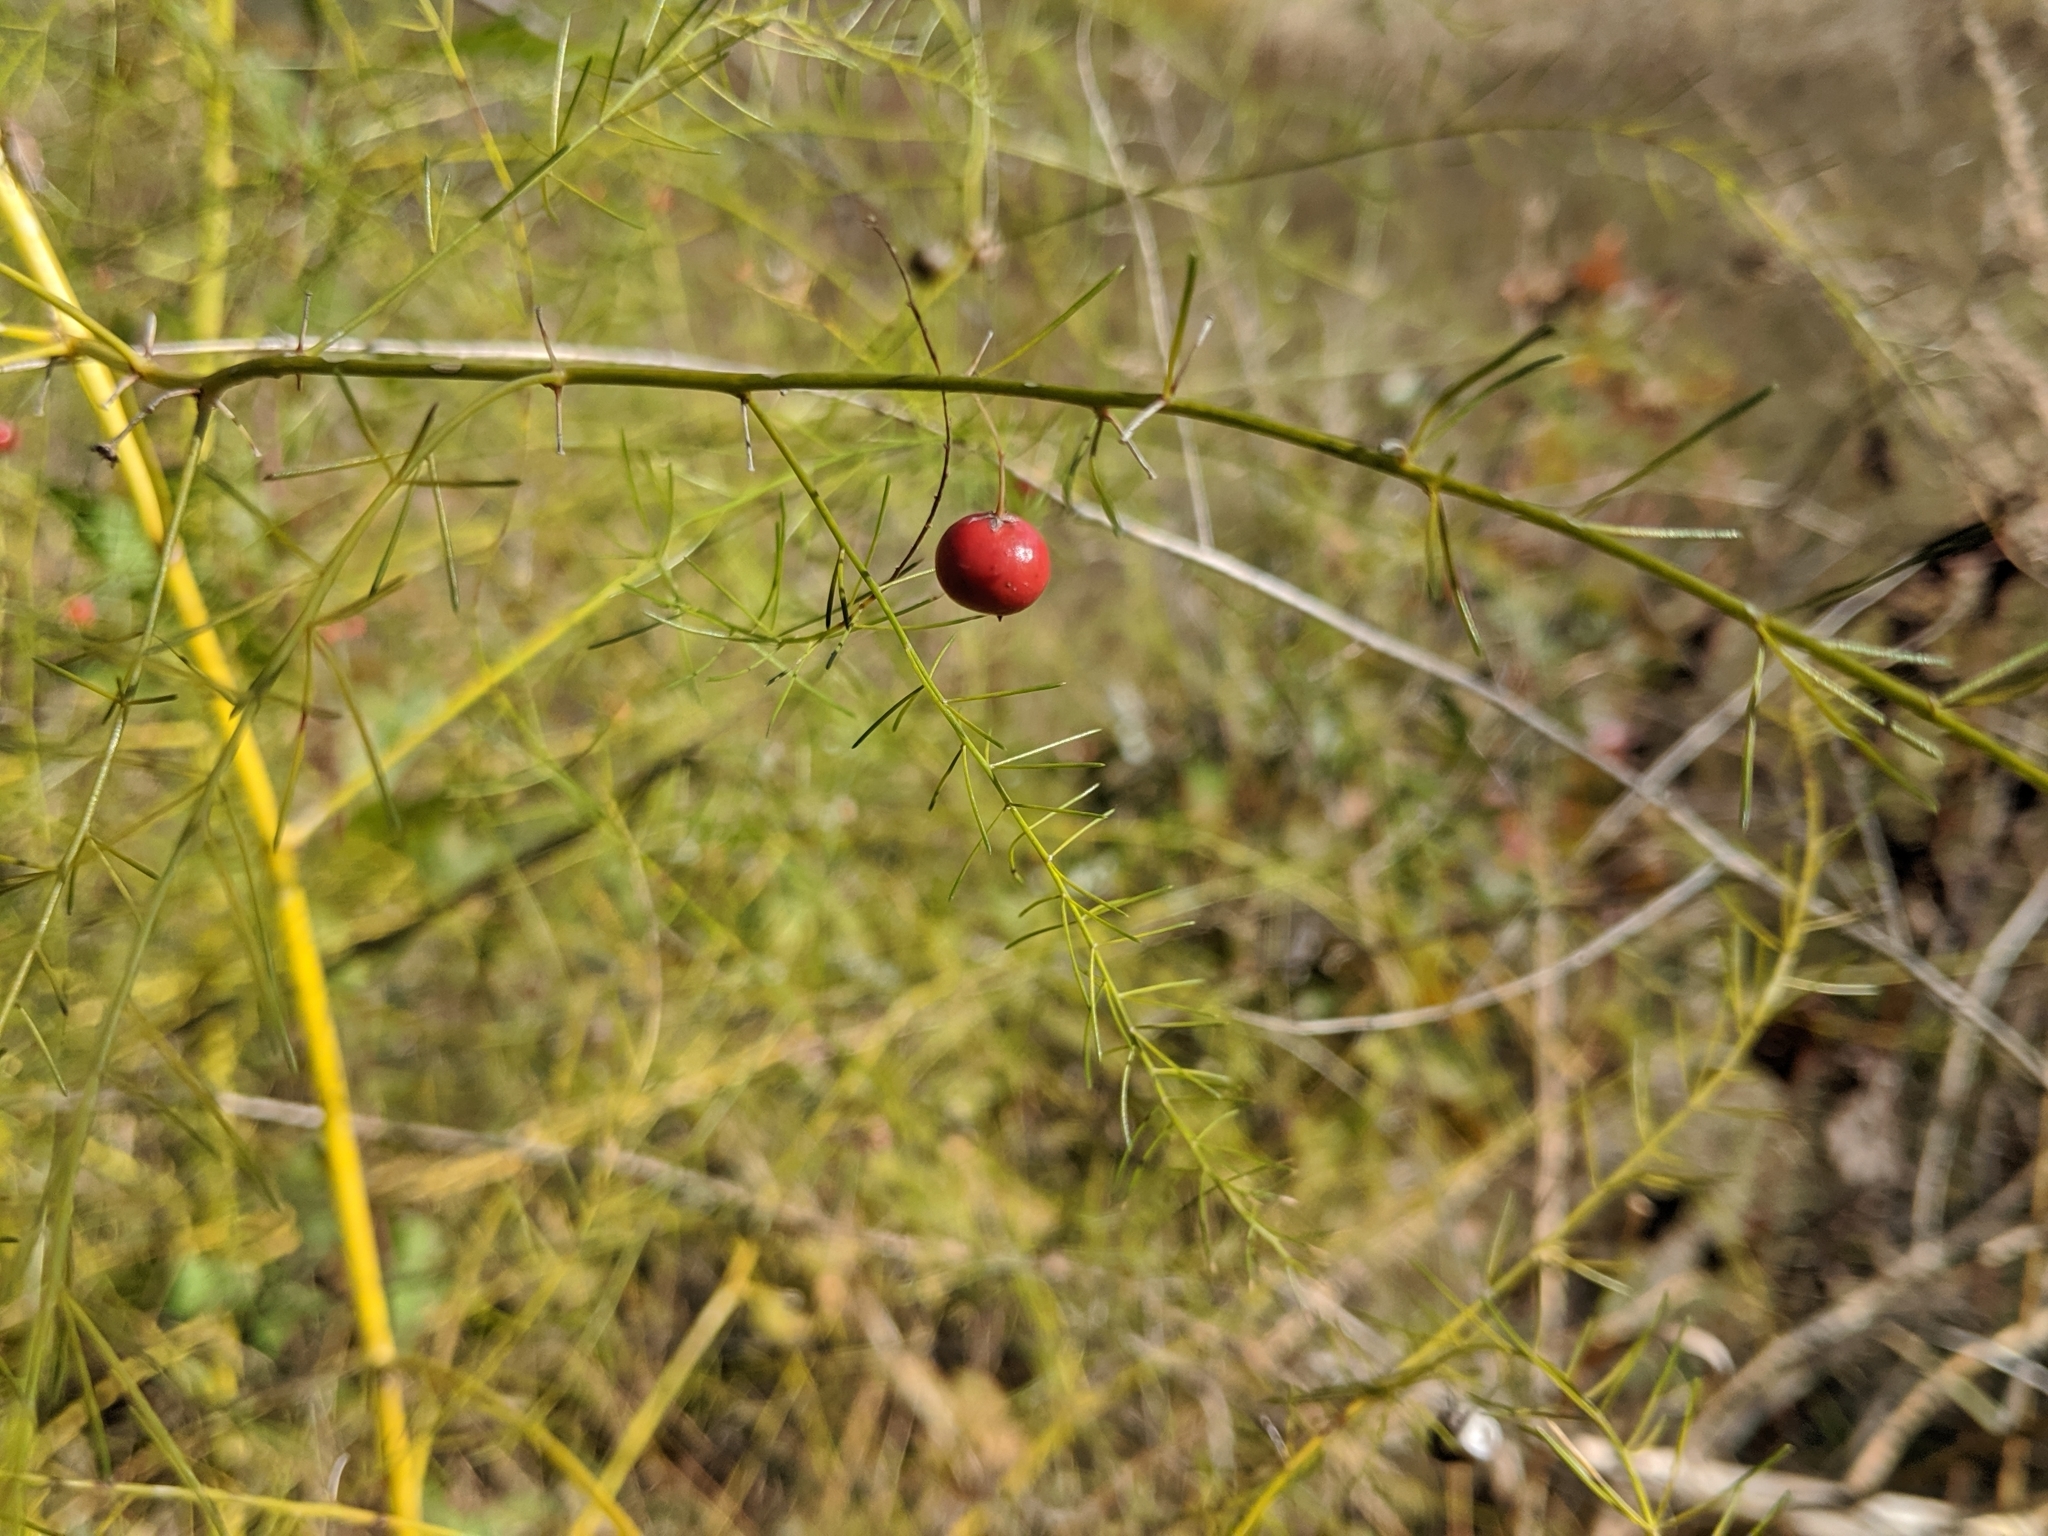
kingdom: Plantae
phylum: Tracheophyta
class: Liliopsida
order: Asparagales
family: Asparagaceae
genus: Asparagus
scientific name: Asparagus officinalis
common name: Garden asparagus
